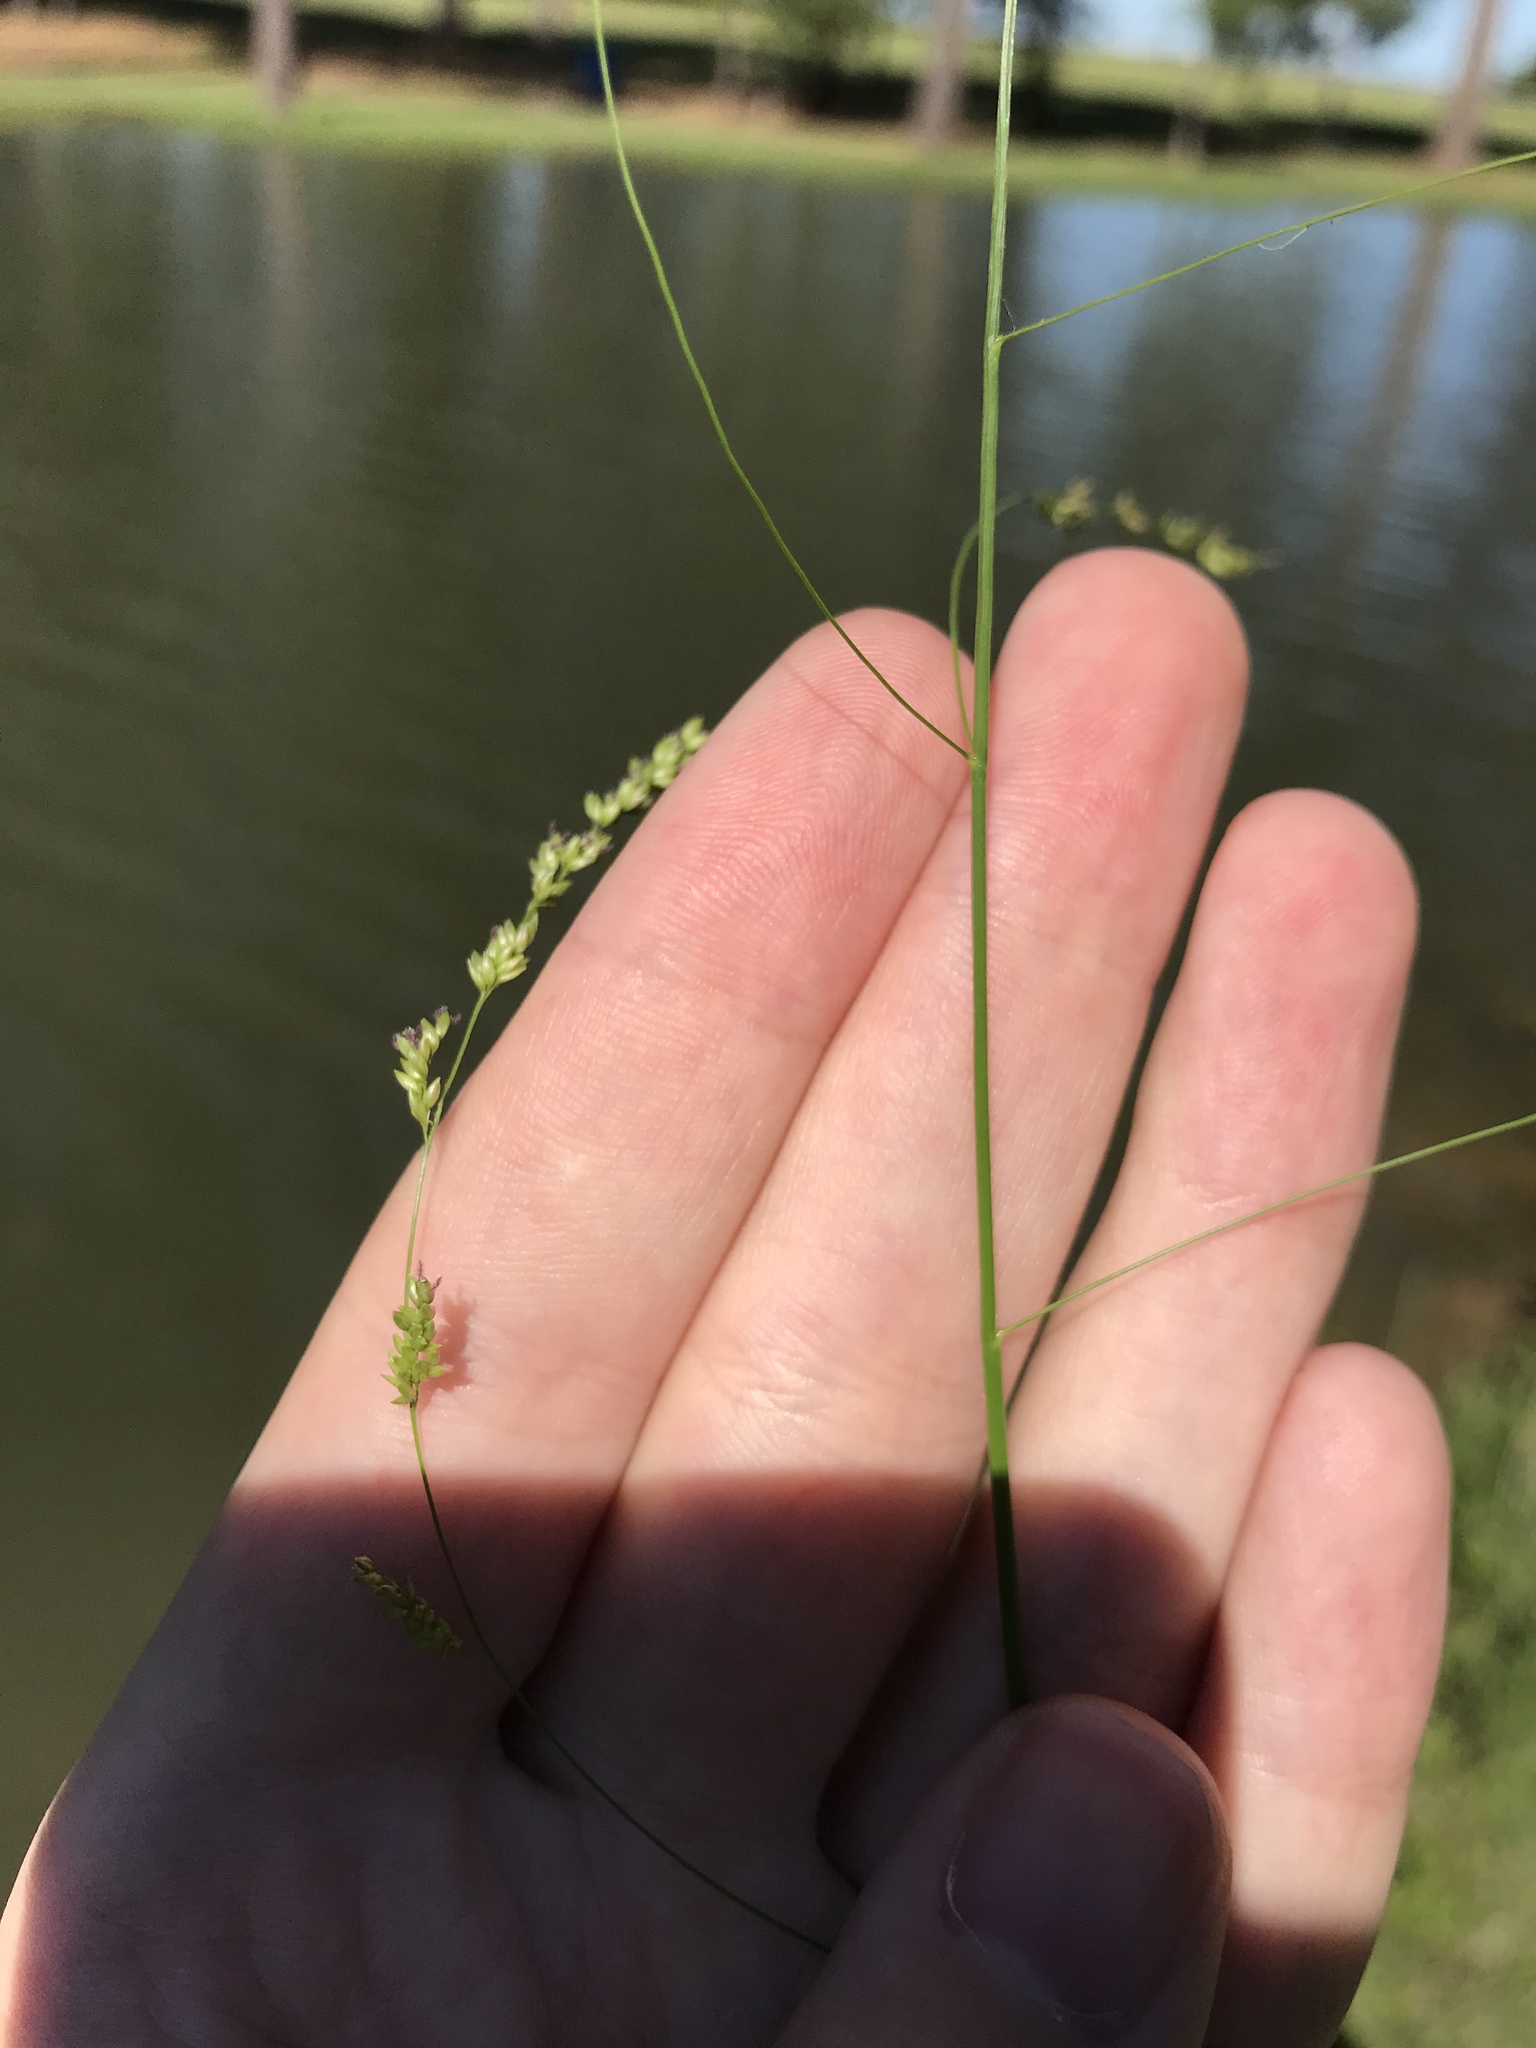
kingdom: Plantae
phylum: Tracheophyta
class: Liliopsida
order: Poales
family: Poaceae
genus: Steinchisma
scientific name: Steinchisma hians
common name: Gaping panic grass
